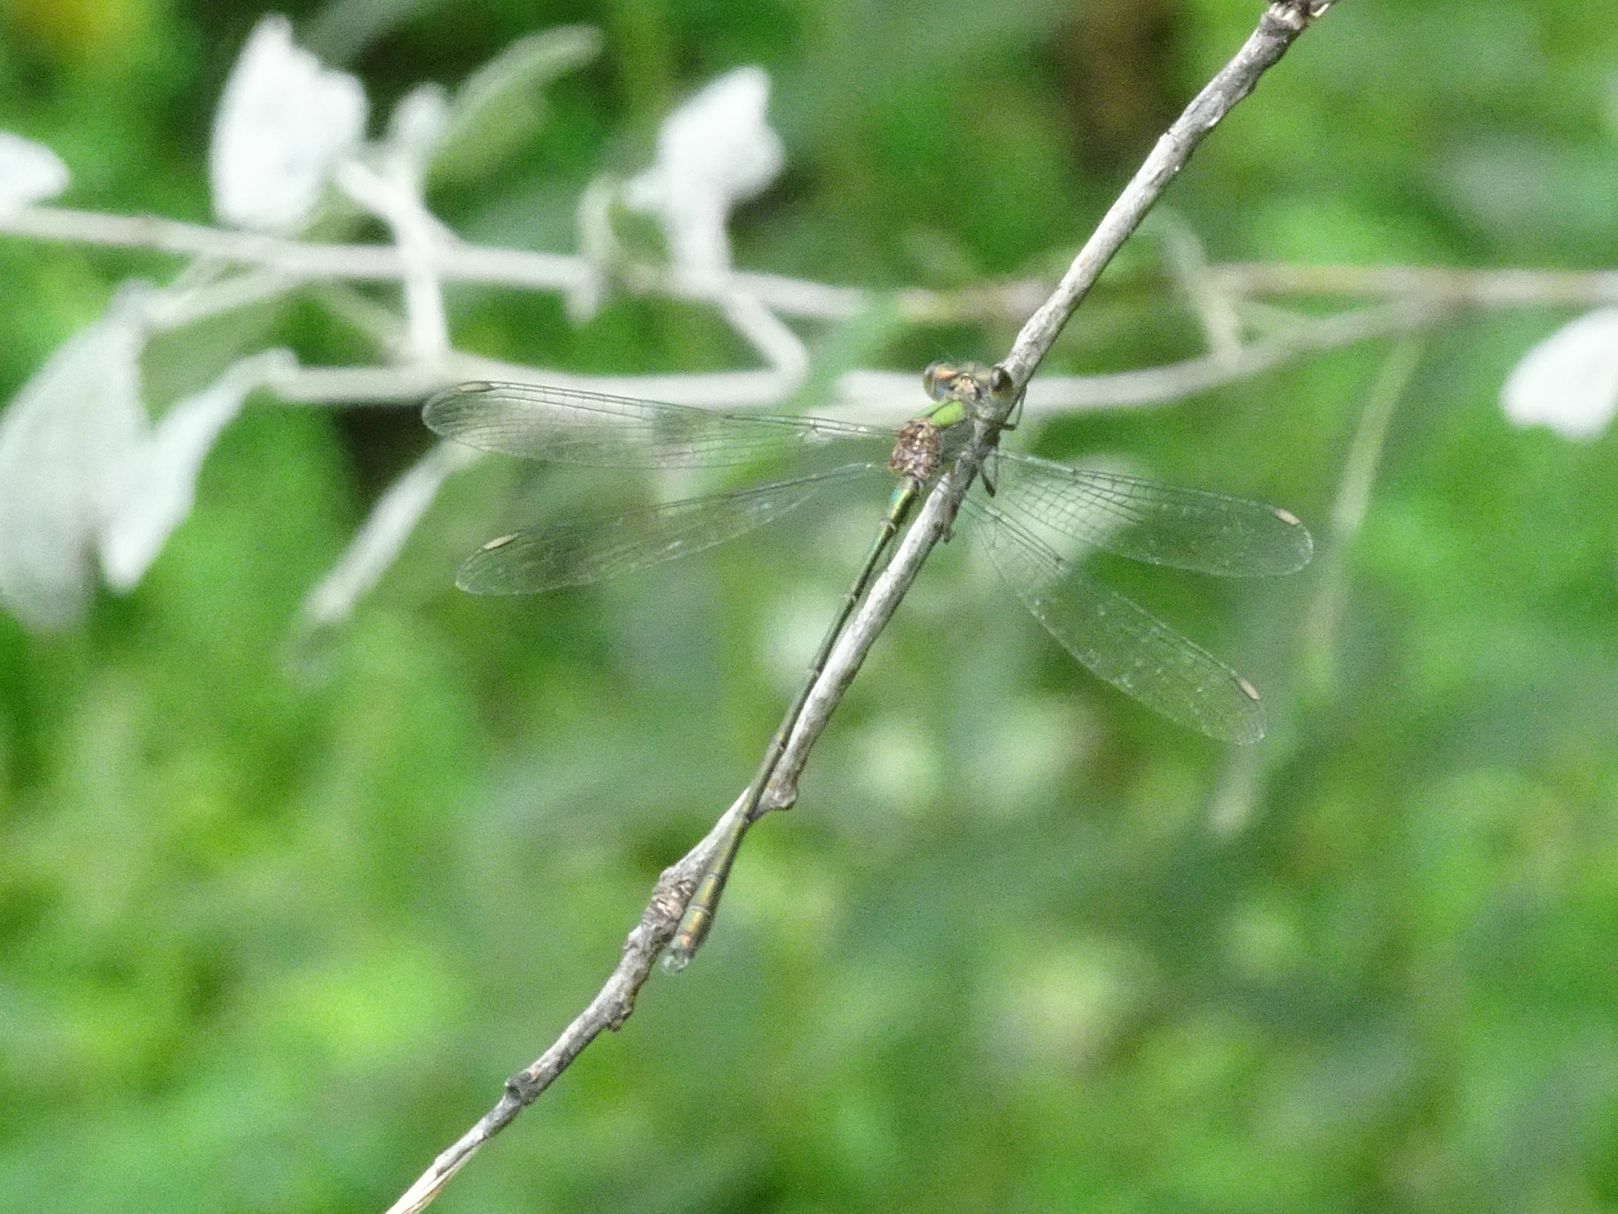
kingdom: Animalia
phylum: Arthropoda
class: Insecta
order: Odonata
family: Lestidae
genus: Chalcolestes
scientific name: Chalcolestes viridis
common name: Green emerald damselfly
